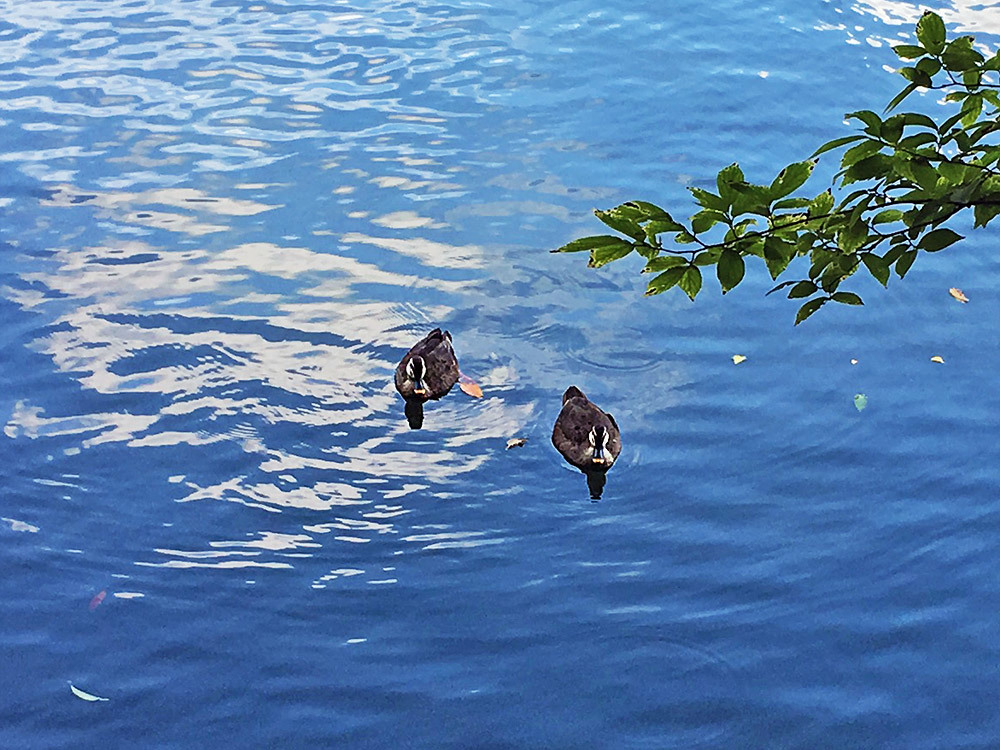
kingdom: Animalia
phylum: Chordata
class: Aves
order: Anseriformes
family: Anatidae
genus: Anas
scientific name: Anas zonorhyncha
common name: Eastern spot-billed duck
